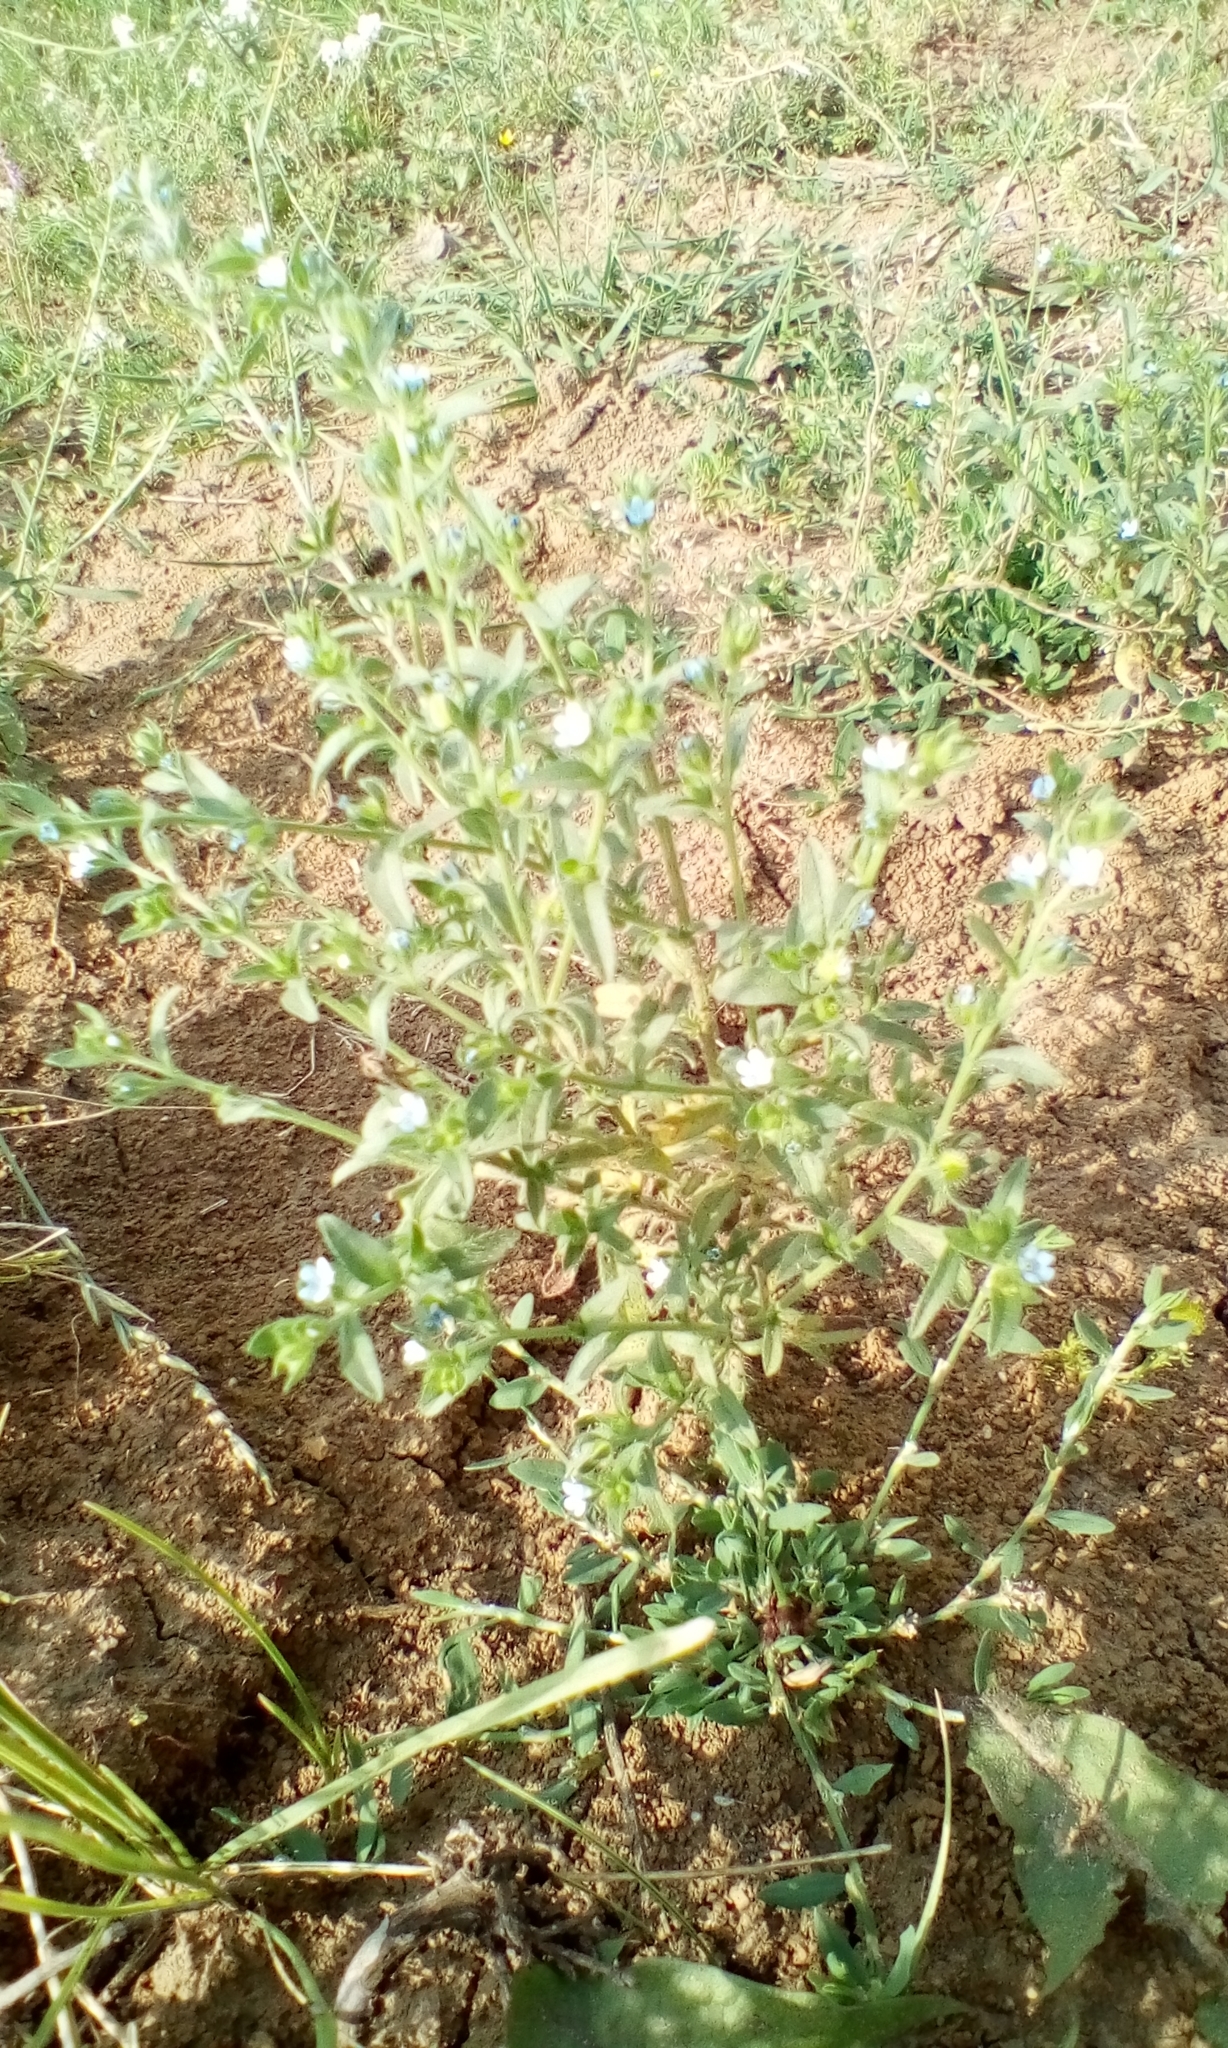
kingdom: Plantae
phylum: Tracheophyta
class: Magnoliopsida
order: Boraginales
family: Boraginaceae
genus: Lappula
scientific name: Lappula squarrosa
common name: European stickseed
